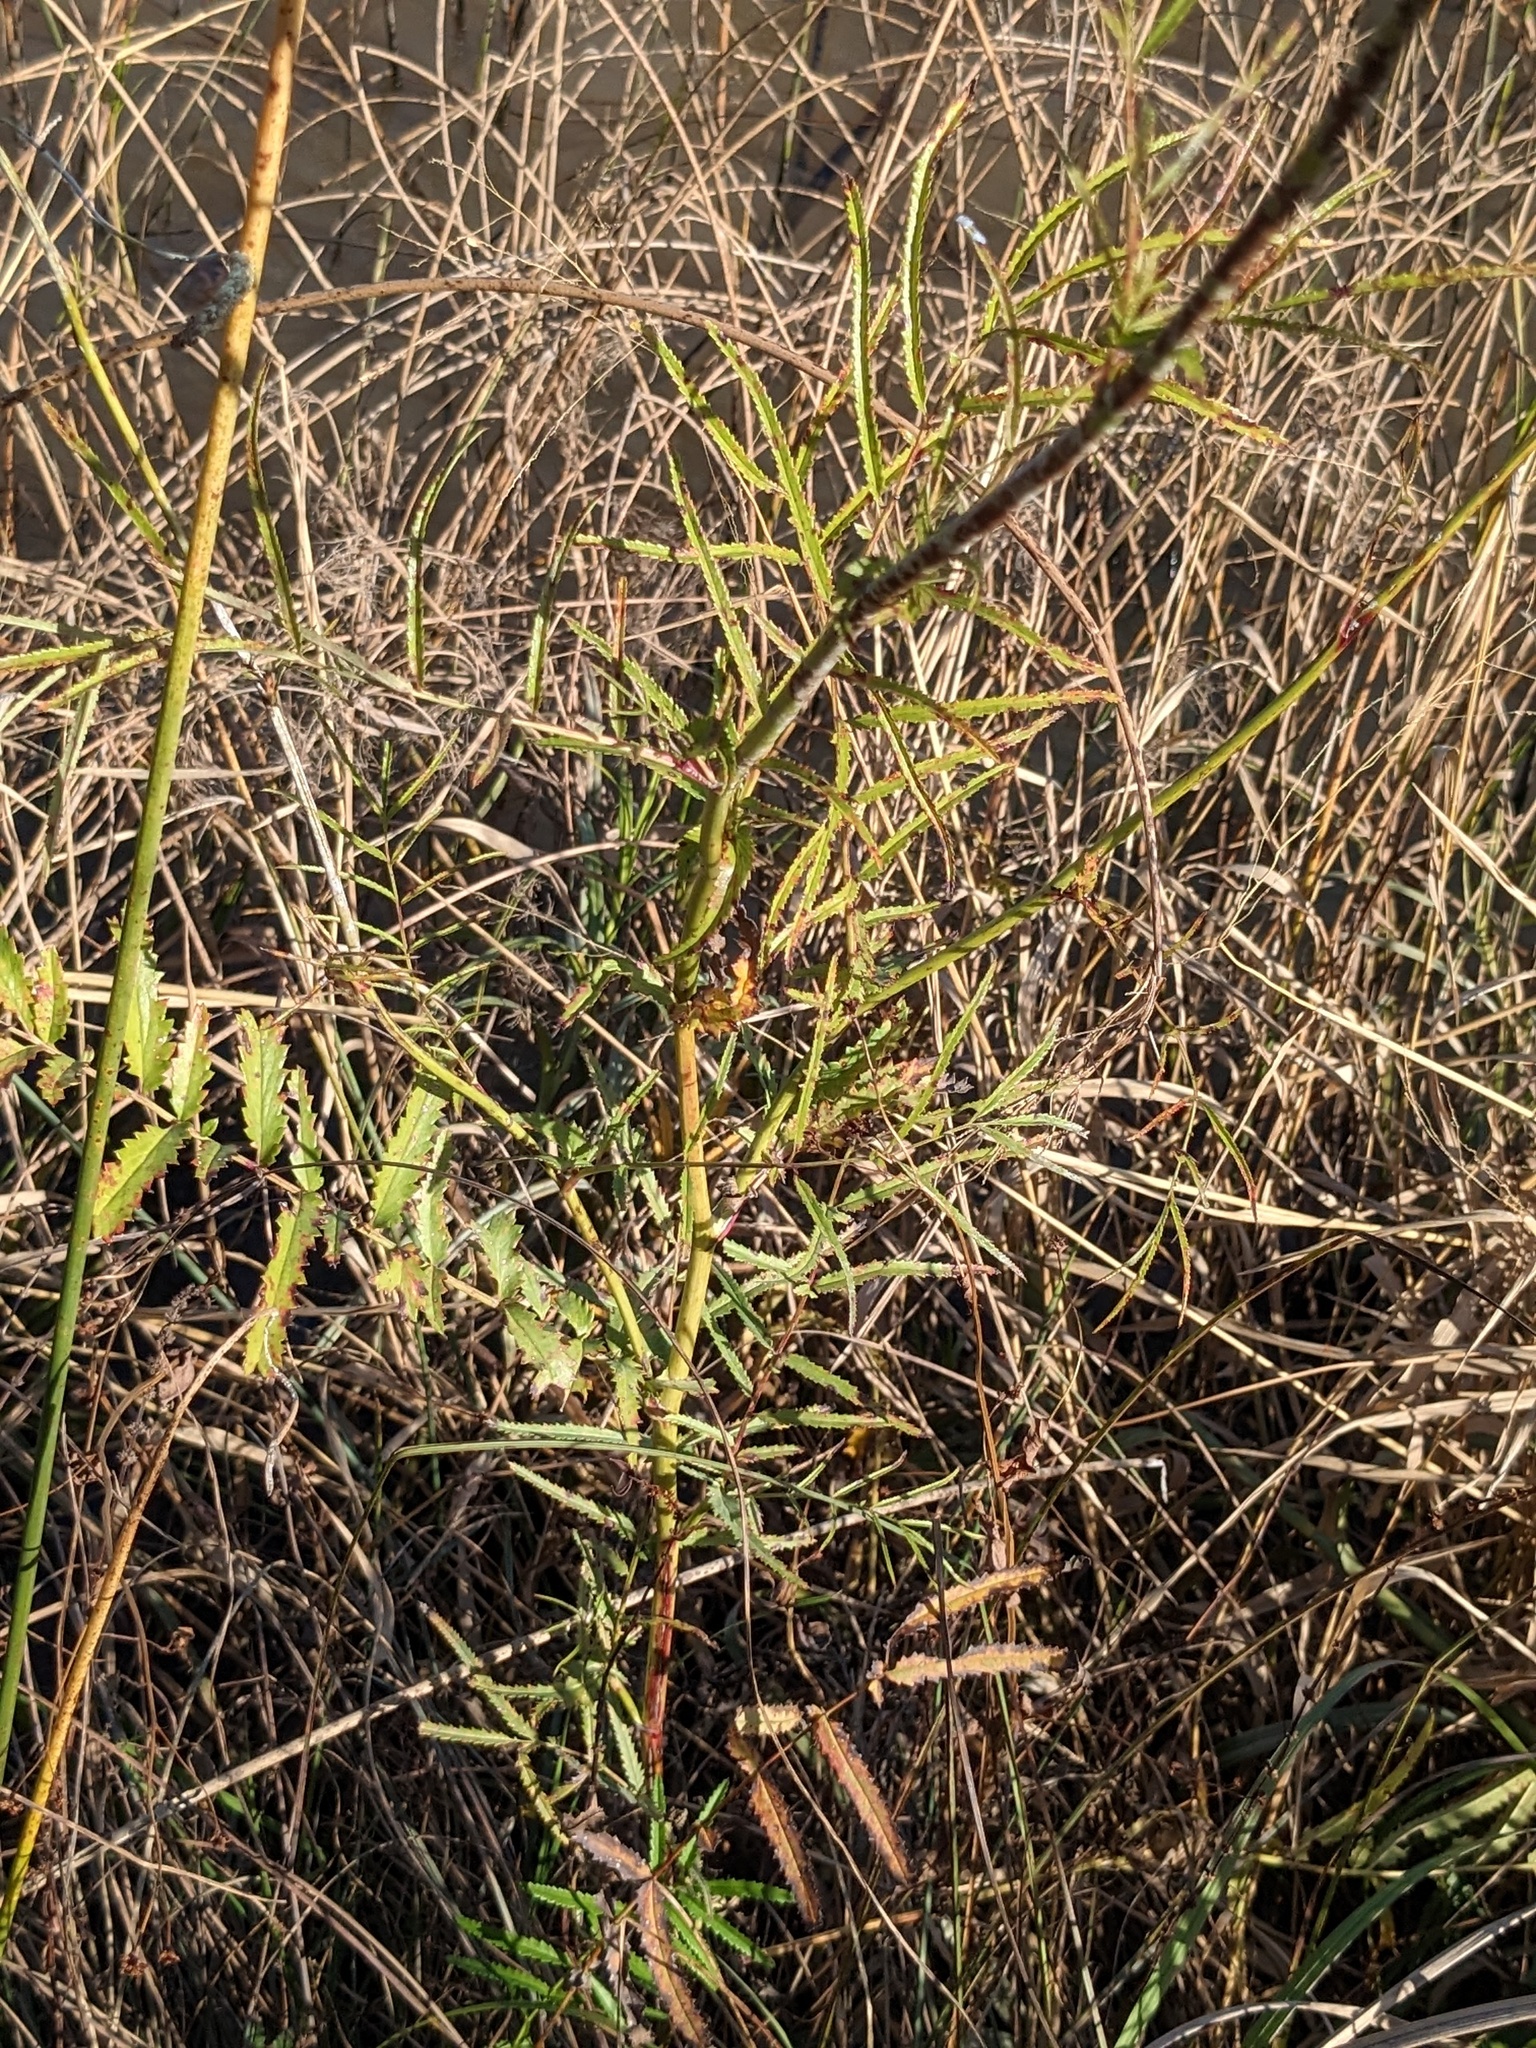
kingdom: Plantae
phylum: Tracheophyta
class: Magnoliopsida
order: Rosales
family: Rosaceae
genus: Poterium
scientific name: Poterium tenuifolium
